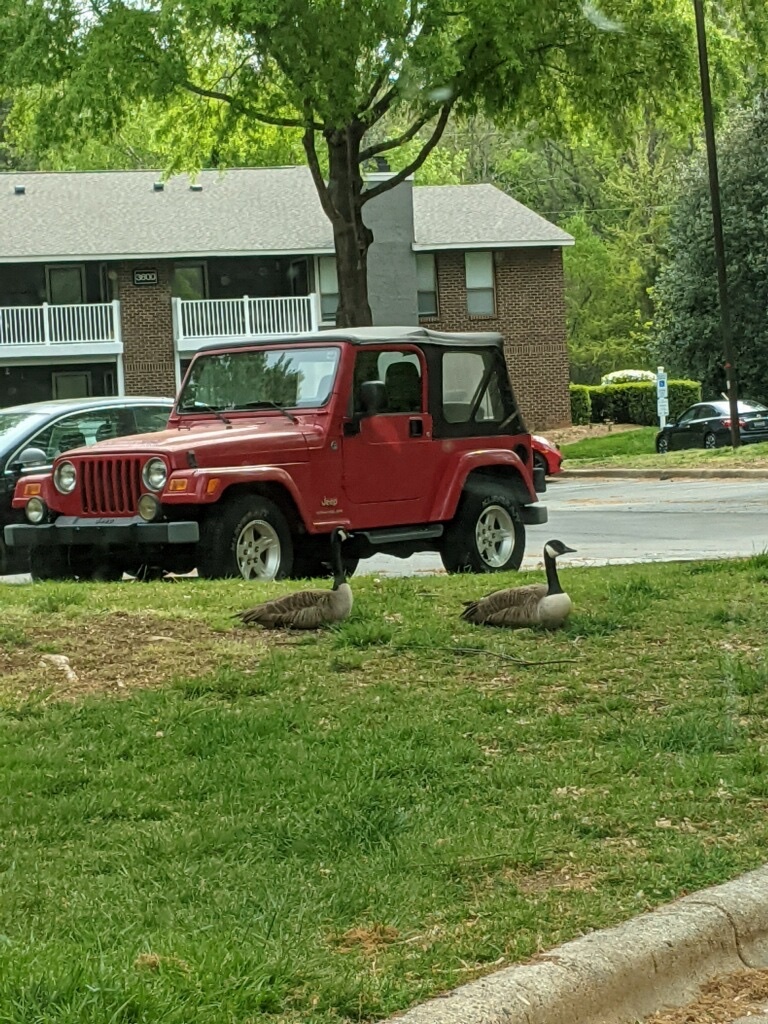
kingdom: Animalia
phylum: Chordata
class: Aves
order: Anseriformes
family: Anatidae
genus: Branta
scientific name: Branta canadensis
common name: Canada goose
